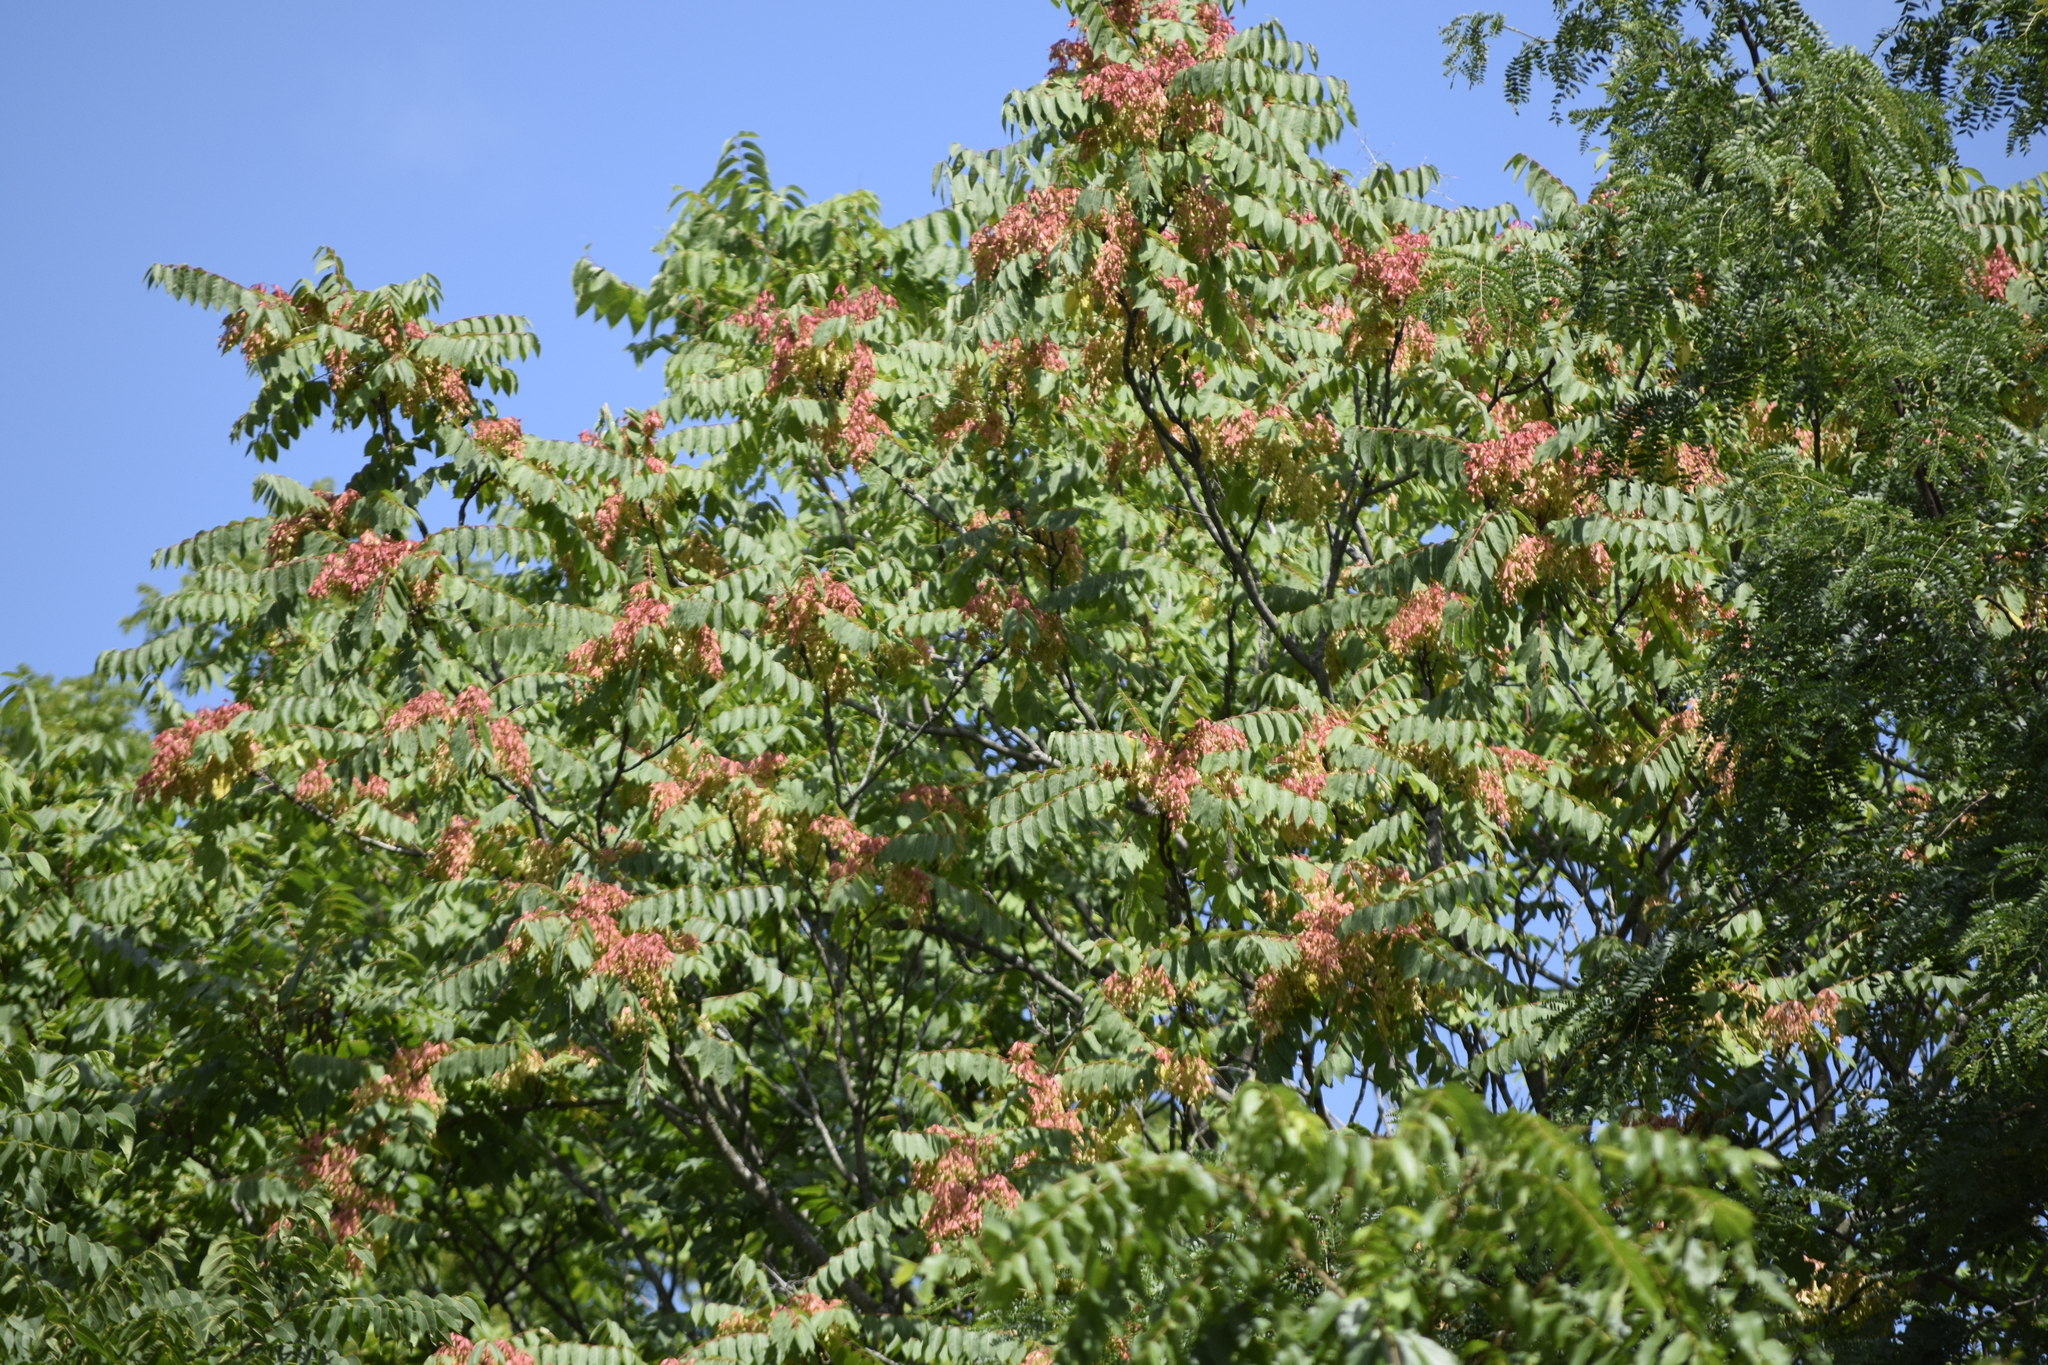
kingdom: Plantae
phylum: Tracheophyta
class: Magnoliopsida
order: Sapindales
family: Simaroubaceae
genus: Ailanthus
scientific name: Ailanthus altissima
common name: Tree-of-heaven
